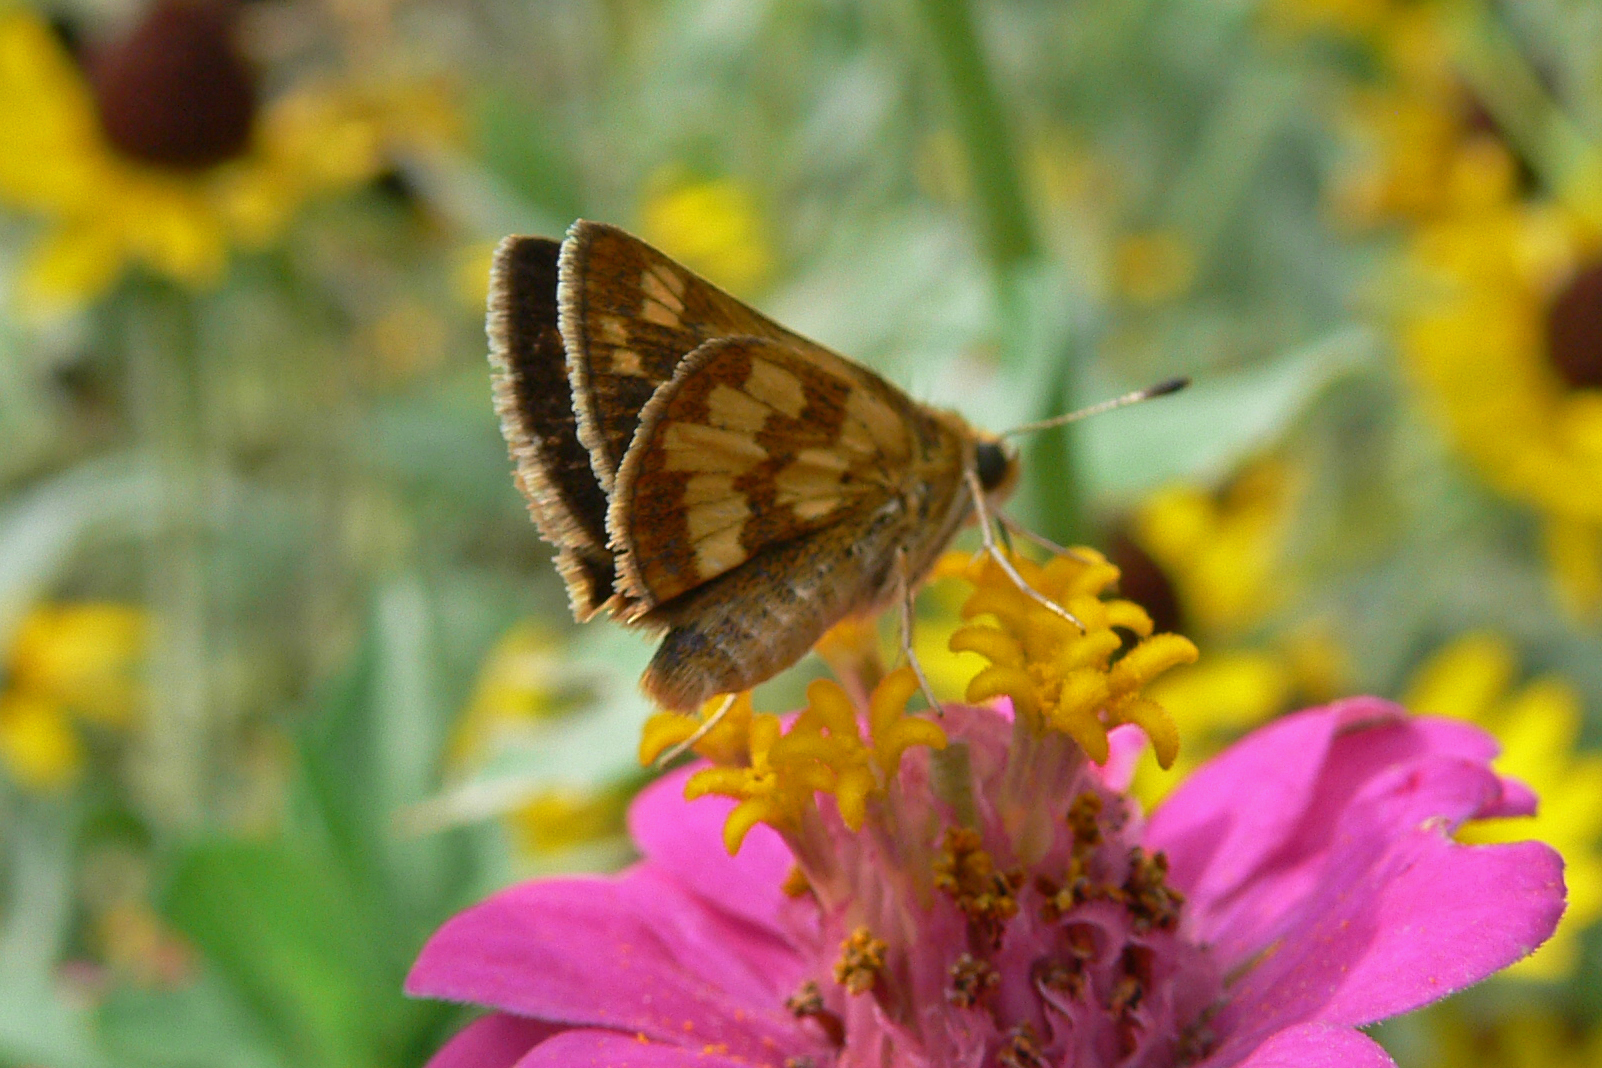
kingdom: Animalia
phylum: Arthropoda
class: Insecta
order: Lepidoptera
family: Hesperiidae
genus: Polites
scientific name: Polites coras
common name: Peck's skipper
